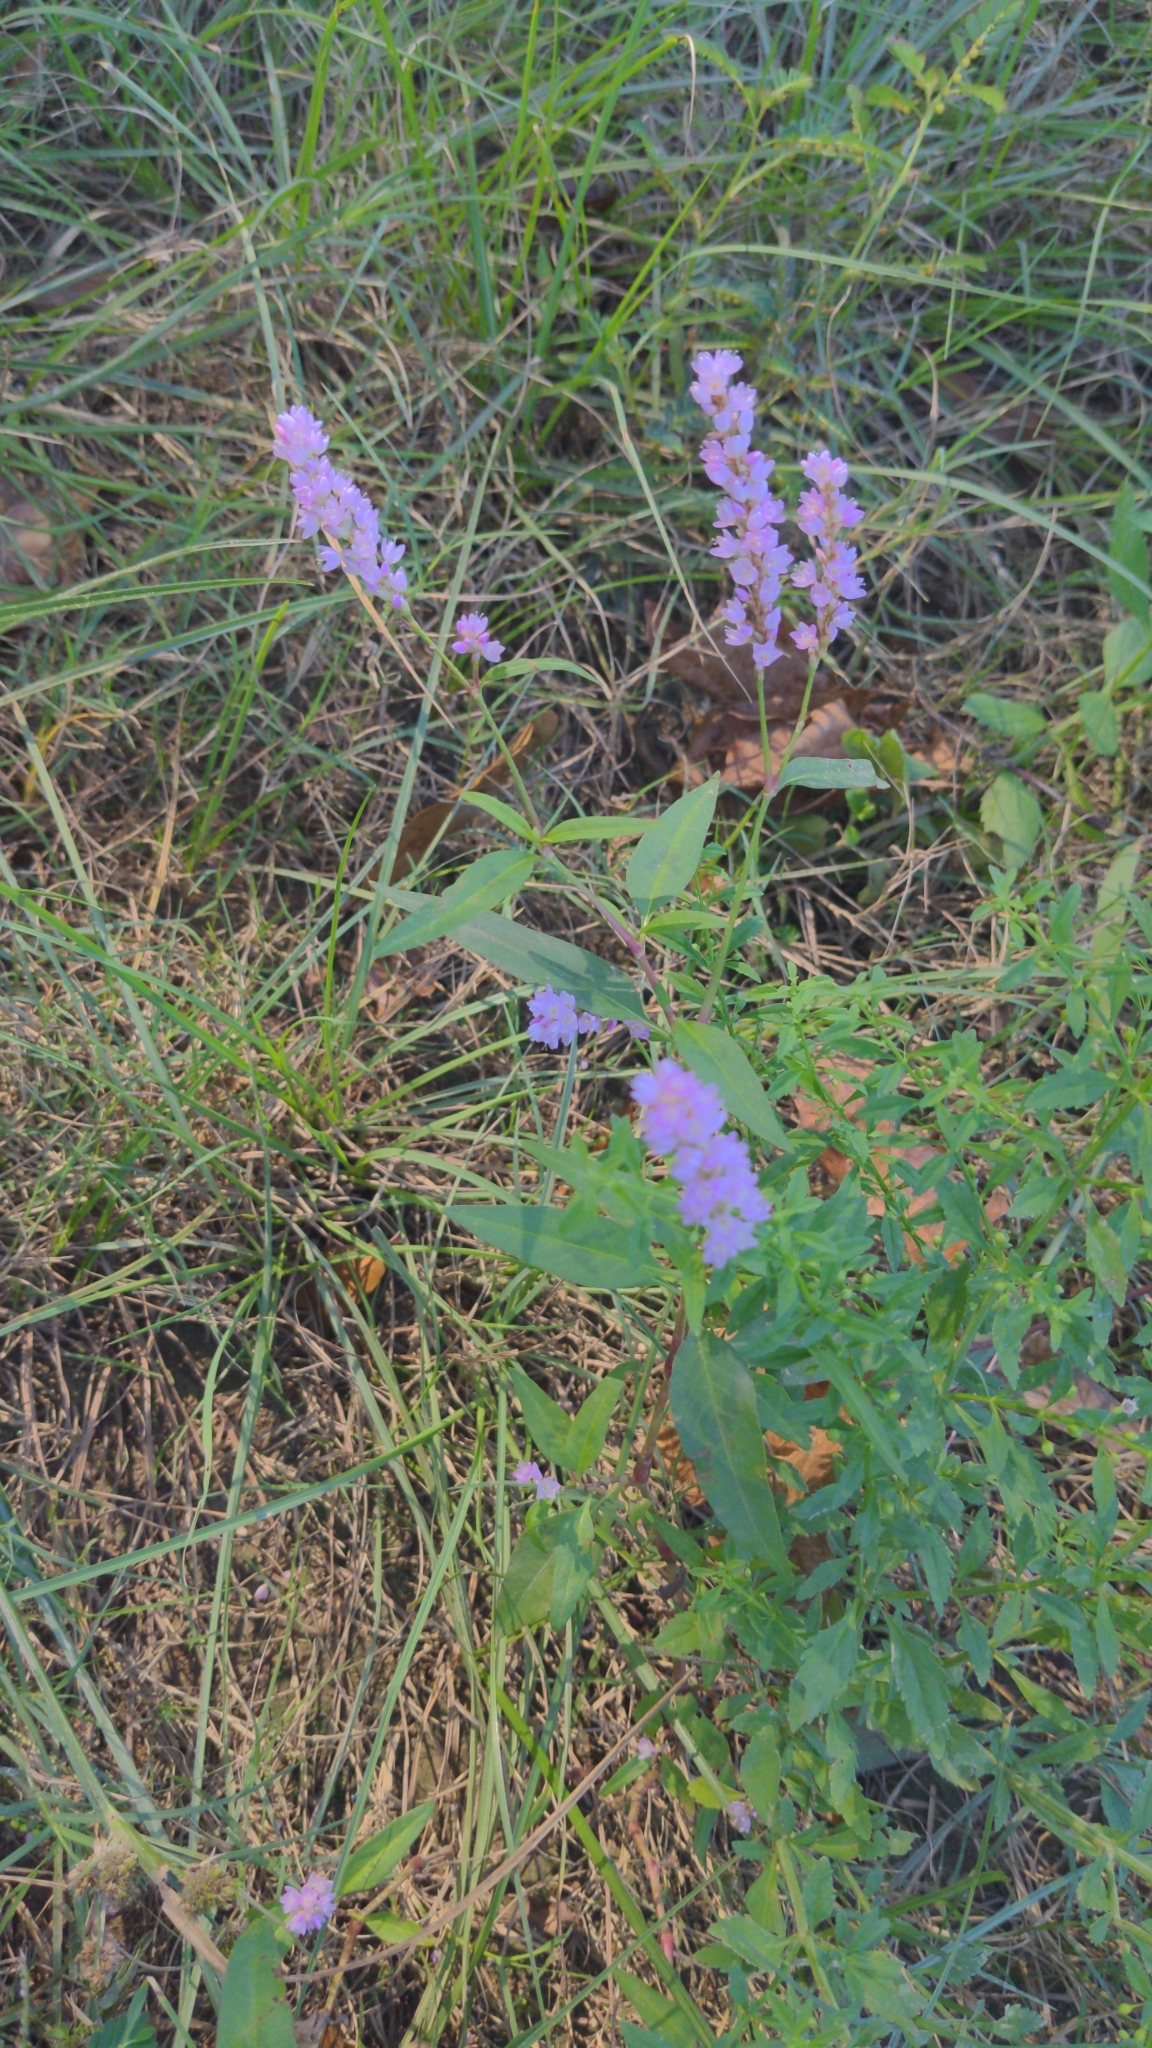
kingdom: Plantae
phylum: Tracheophyta
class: Magnoliopsida
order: Caryophyllales
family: Polygonaceae
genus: Persicaria
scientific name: Persicaria bicornis
